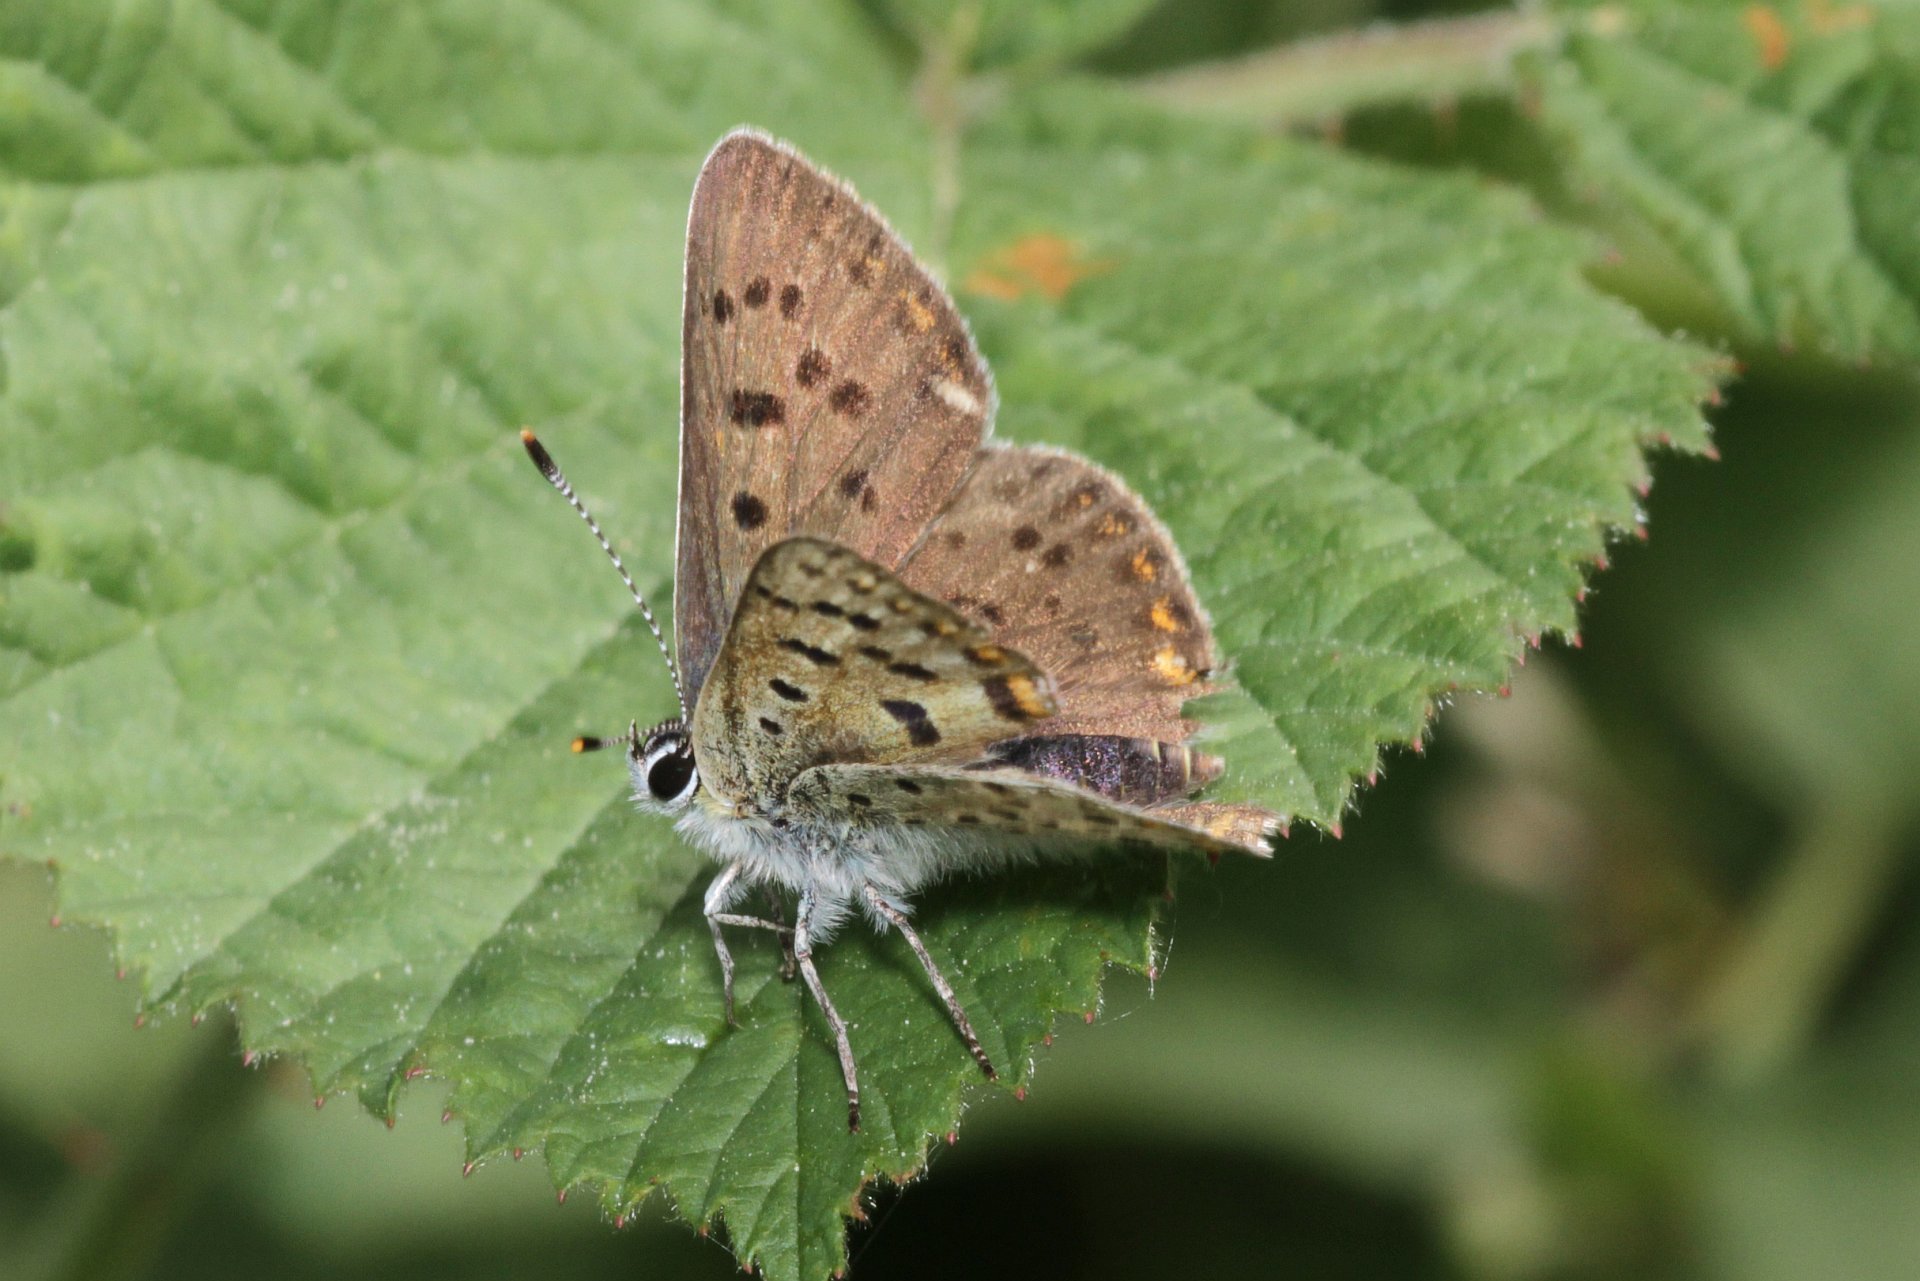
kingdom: Animalia
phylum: Arthropoda
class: Insecta
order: Lepidoptera
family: Lycaenidae
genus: Loweia
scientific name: Loweia tityrus
